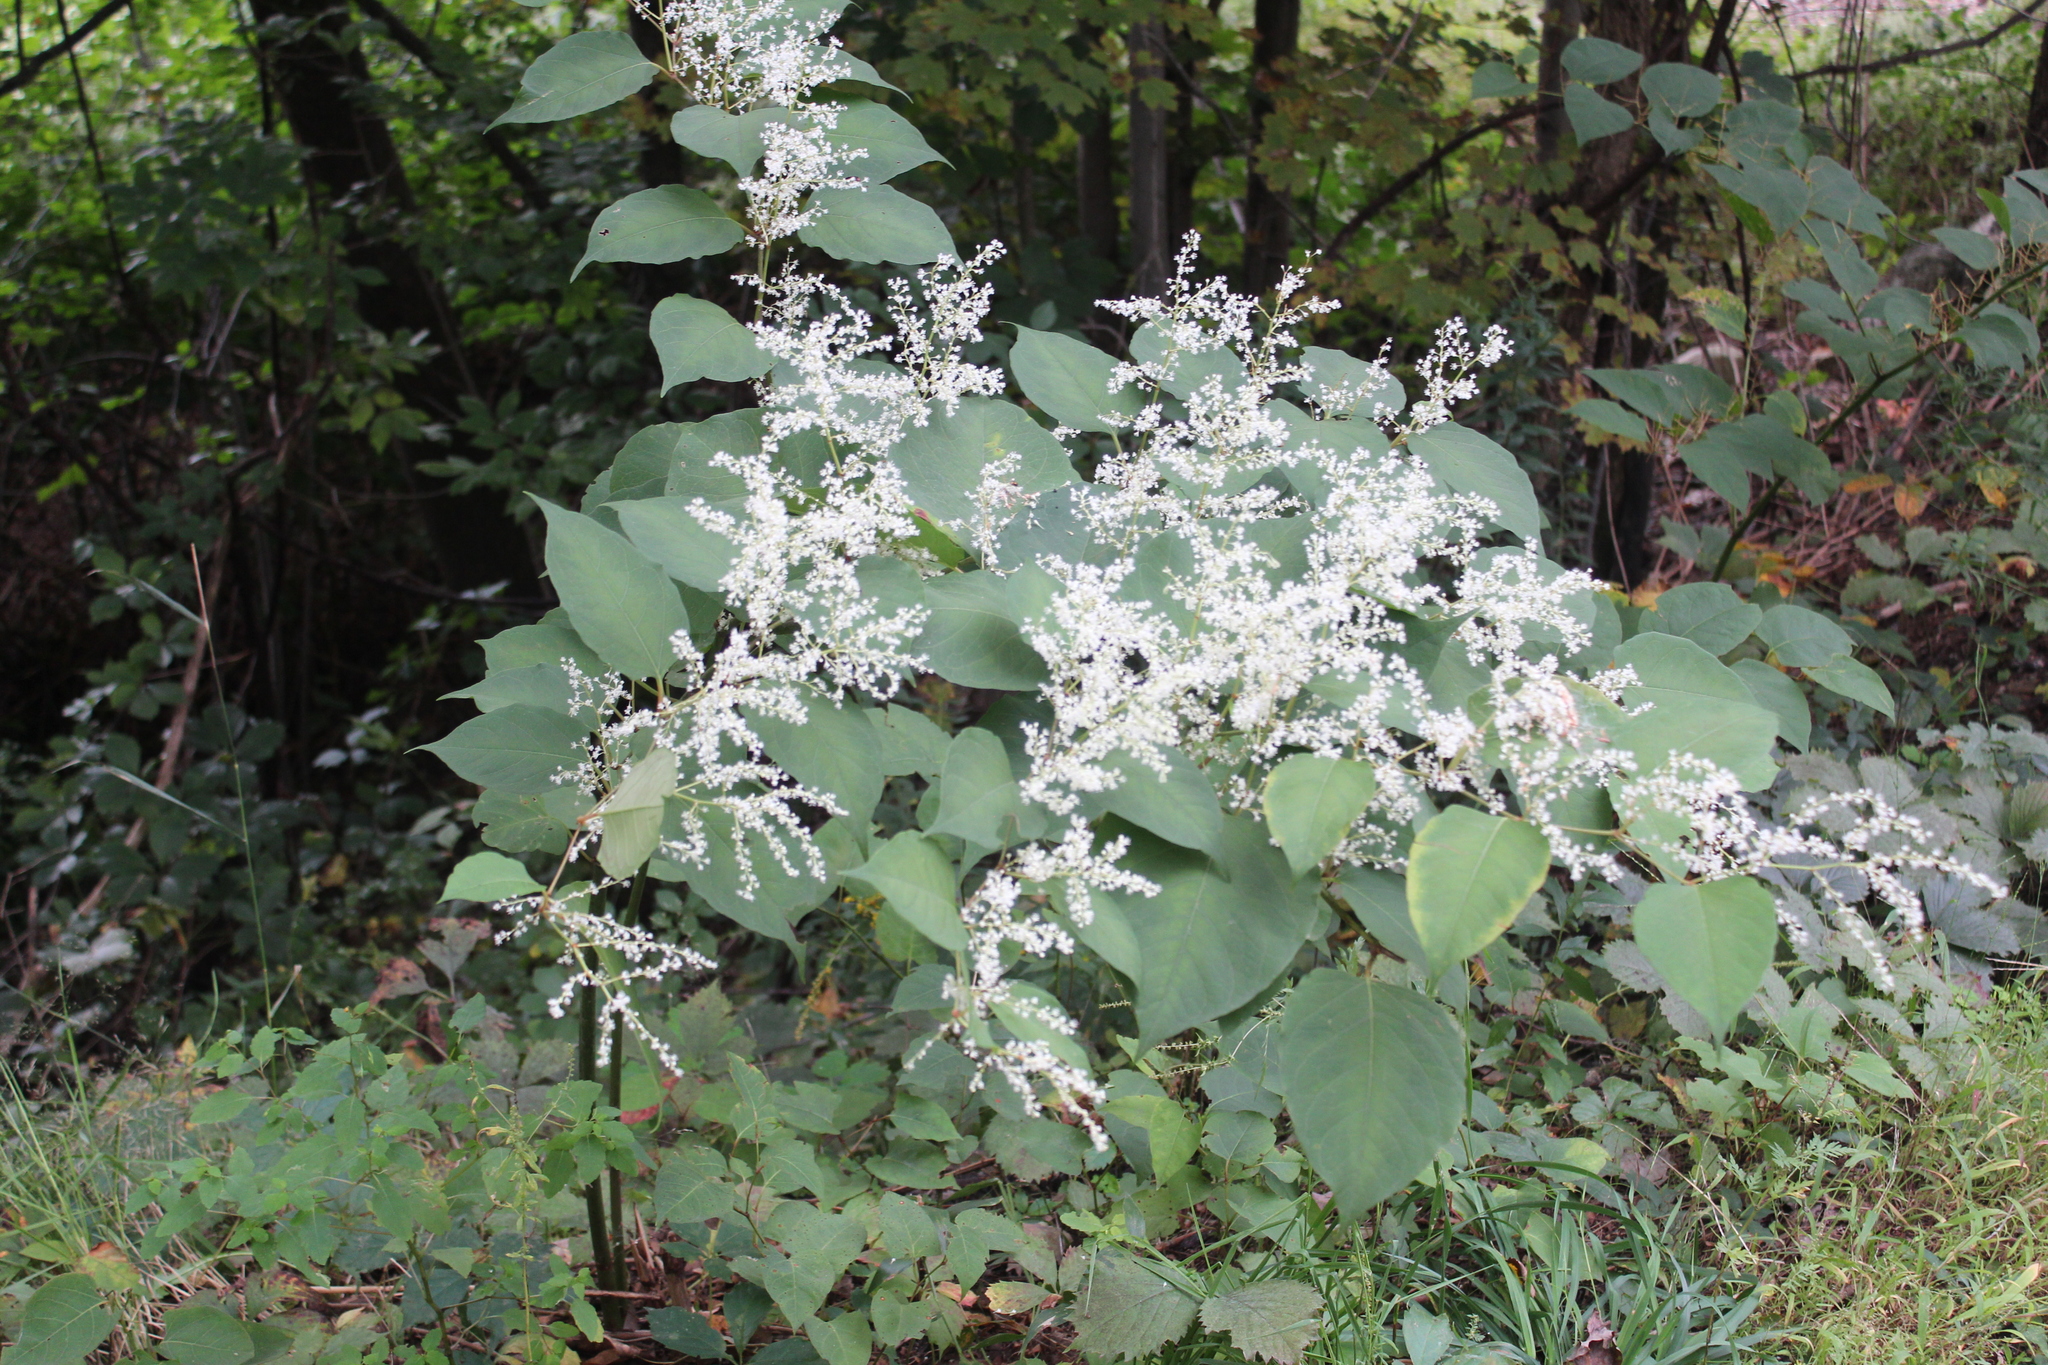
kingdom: Plantae
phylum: Tracheophyta
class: Magnoliopsida
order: Caryophyllales
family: Polygonaceae
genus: Reynoutria
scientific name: Reynoutria japonica
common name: Japanese knotweed
